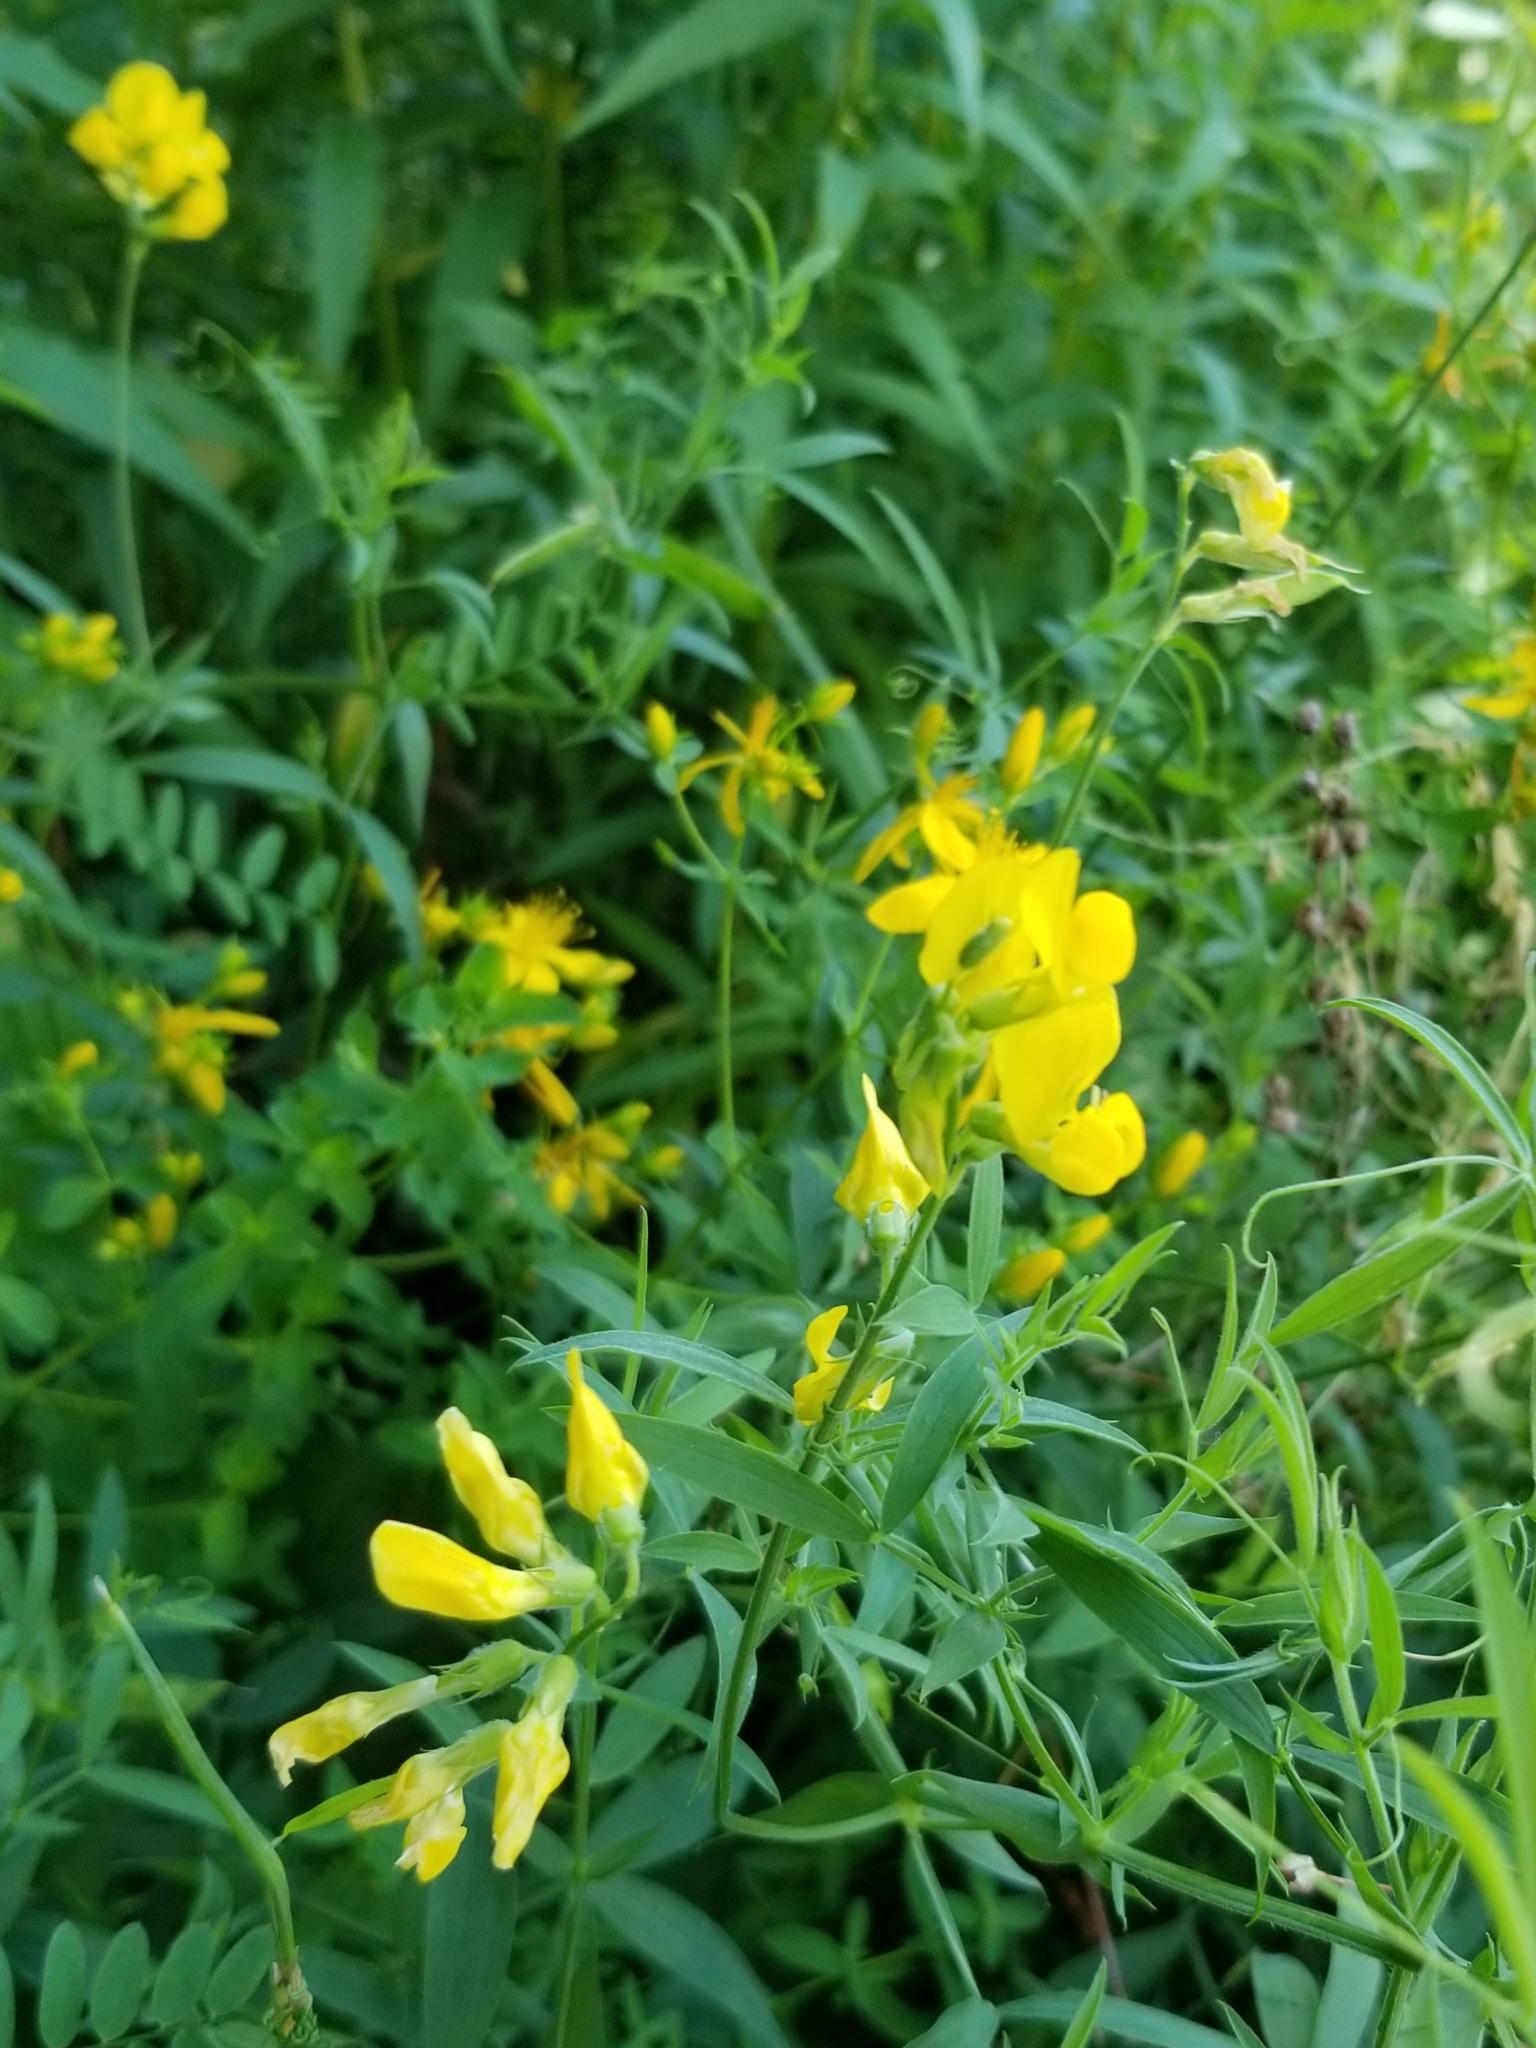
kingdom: Plantae
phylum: Tracheophyta
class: Magnoliopsida
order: Fabales
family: Fabaceae
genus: Lathyrus
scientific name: Lathyrus pratensis
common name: Meadow vetchling
